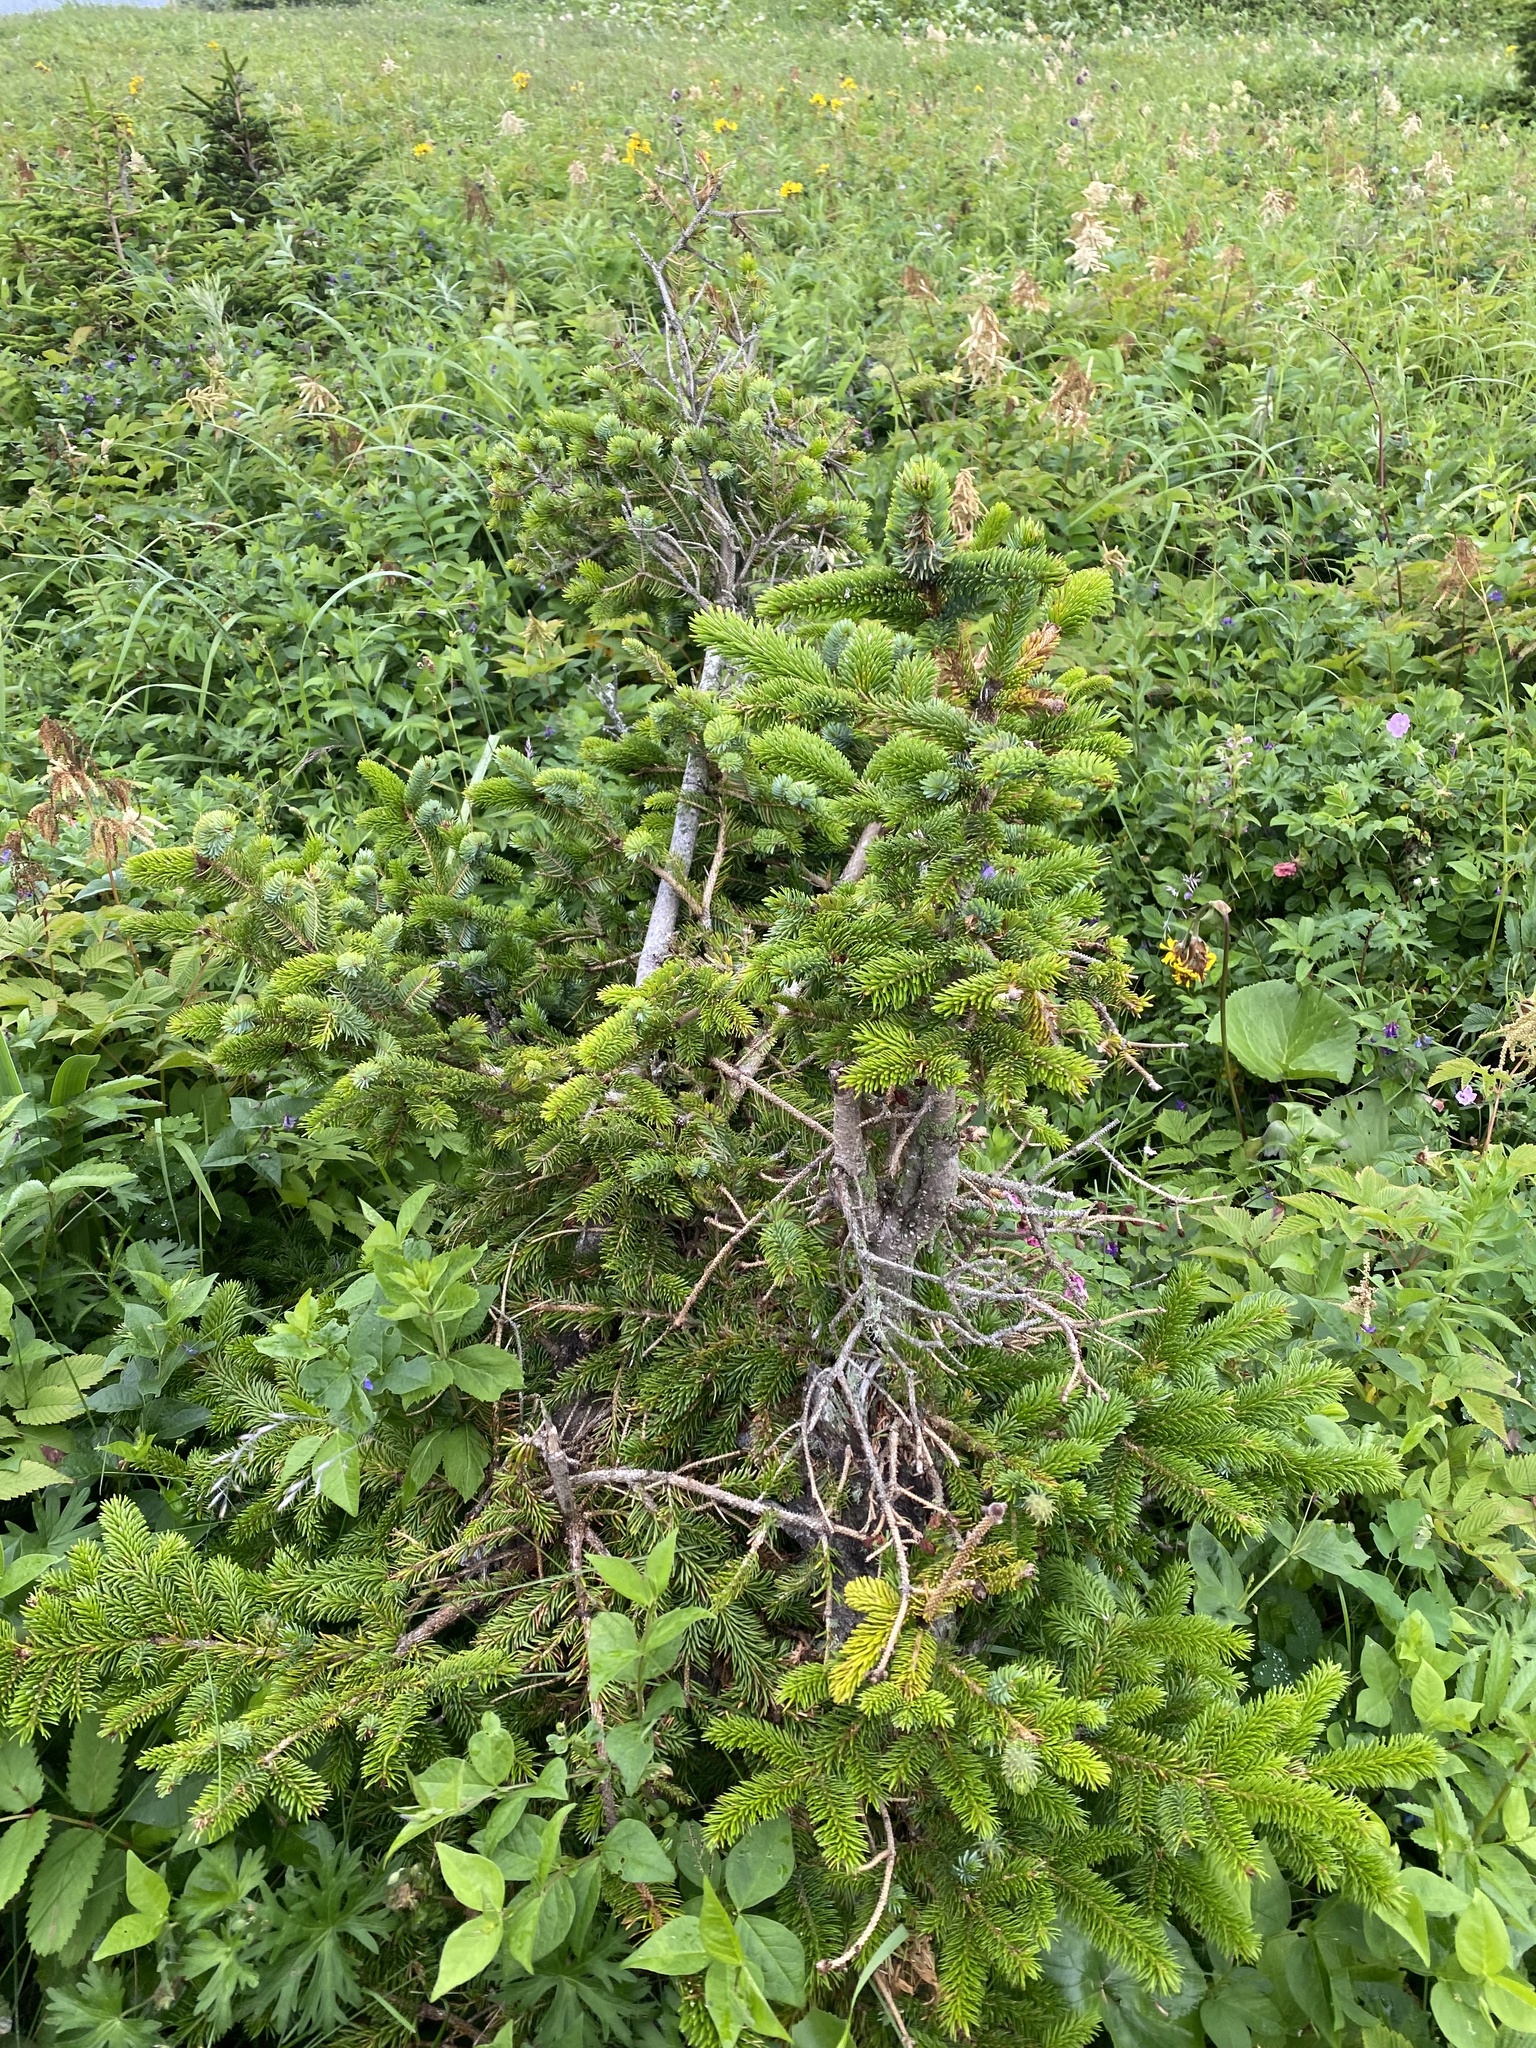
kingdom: Plantae
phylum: Tracheophyta
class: Pinopsida
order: Pinales
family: Pinaceae
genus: Picea
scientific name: Picea jezoensis
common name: Yeddo spruce
